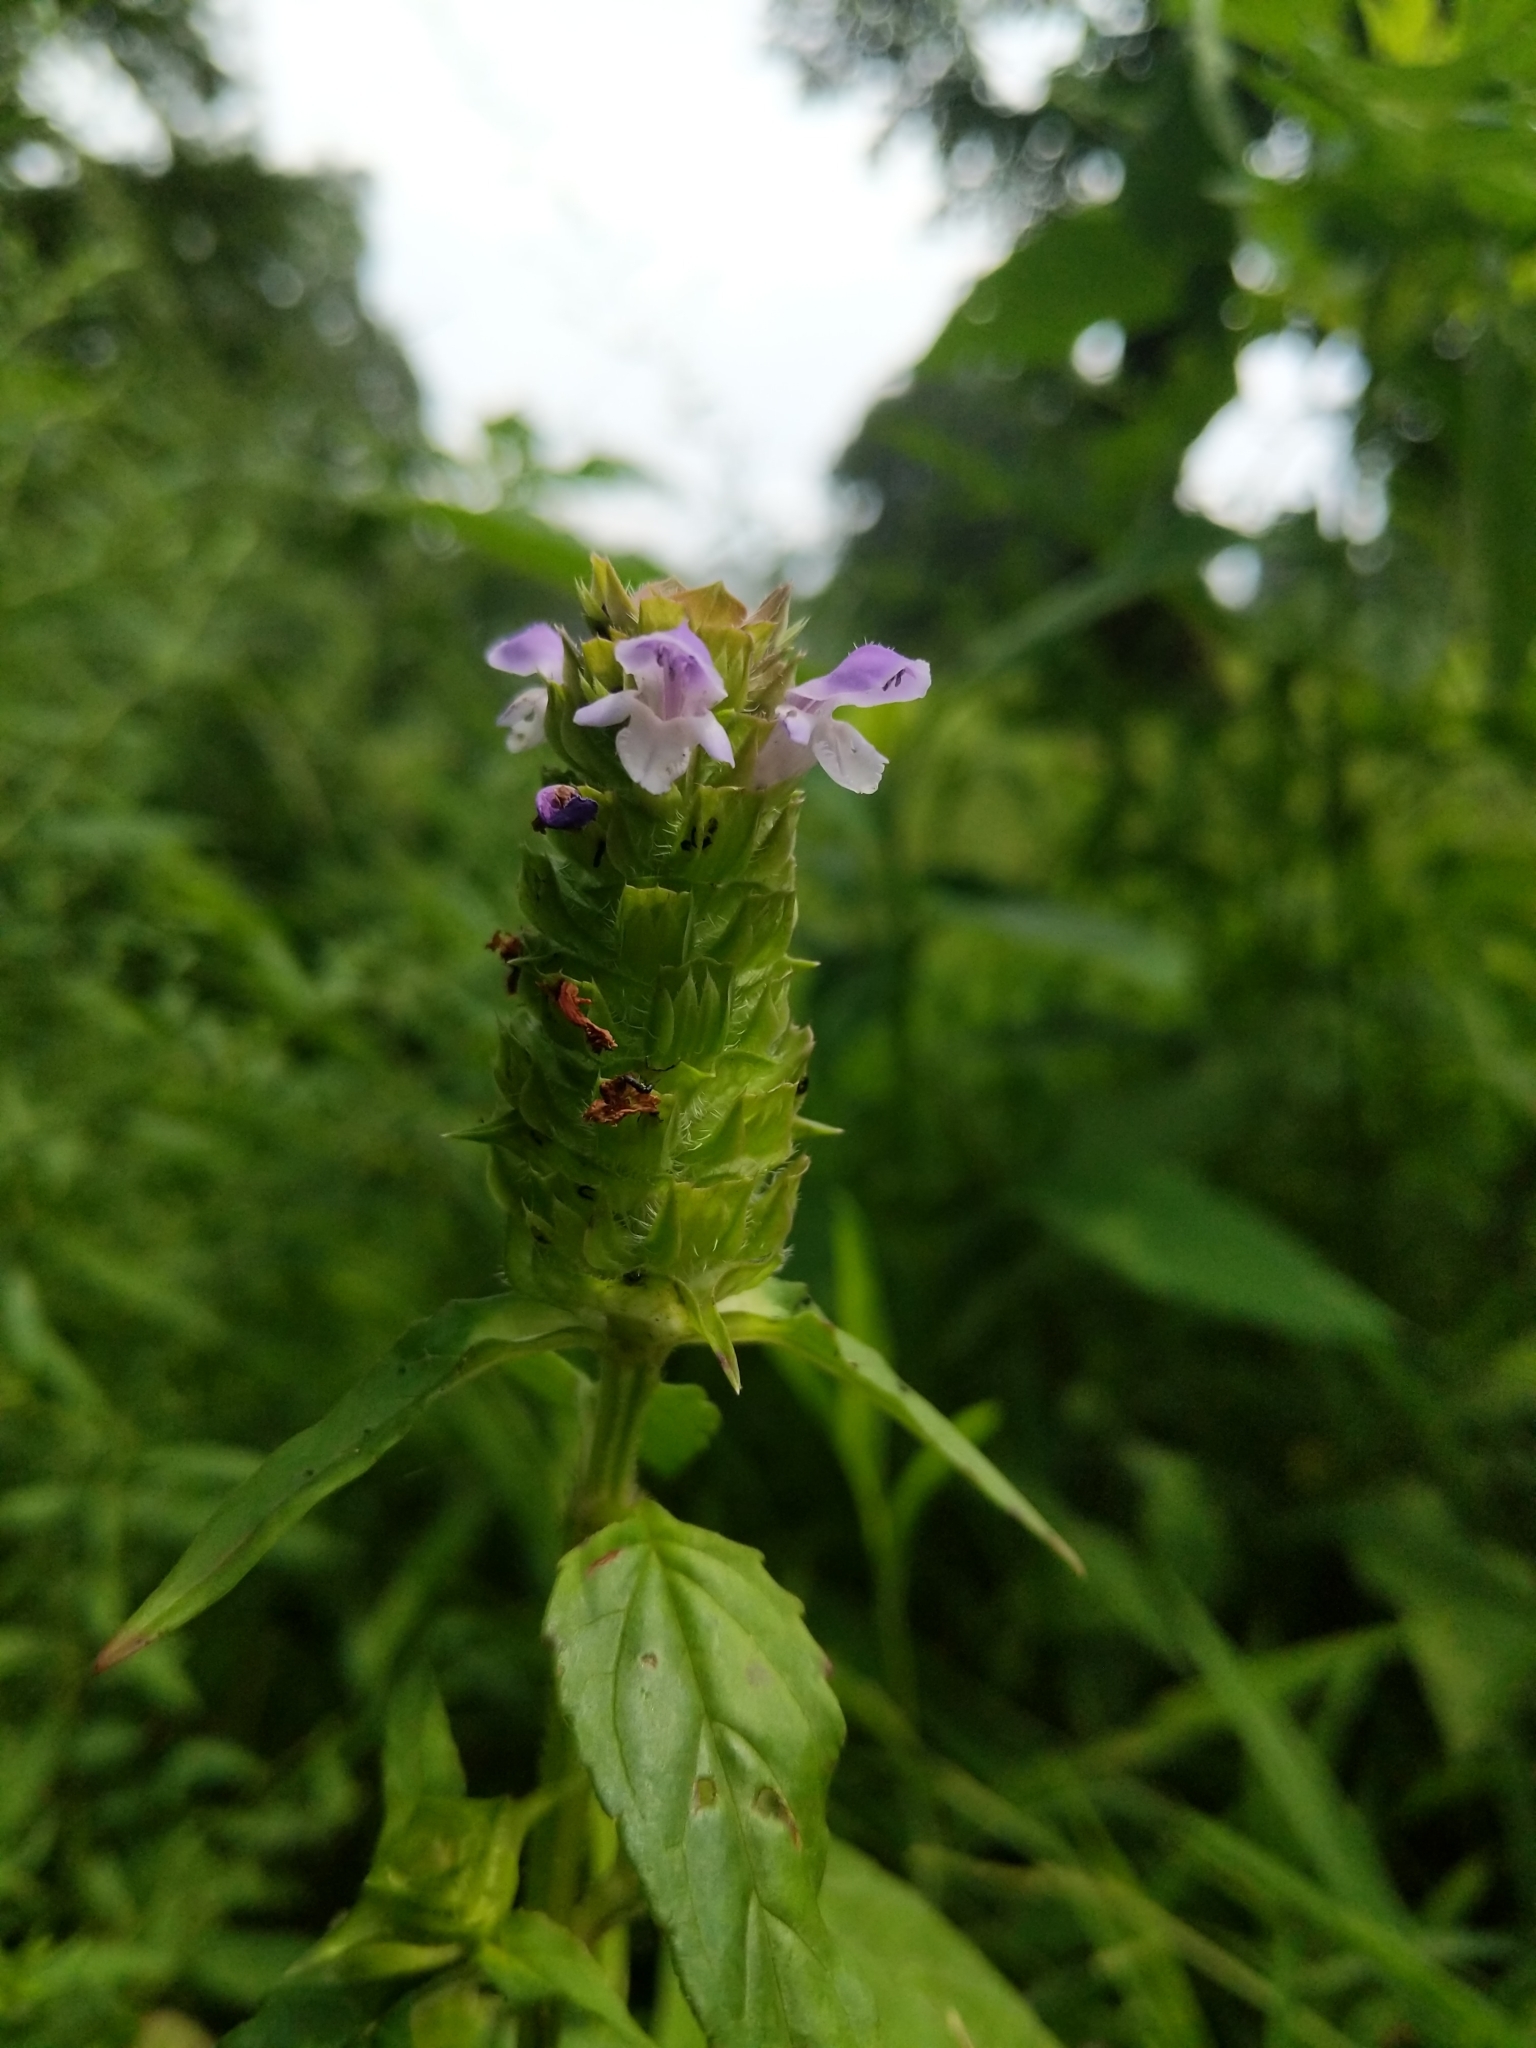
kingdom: Plantae
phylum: Tracheophyta
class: Magnoliopsida
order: Lamiales
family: Lamiaceae
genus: Prunella
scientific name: Prunella vulgaris
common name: Heal-all
